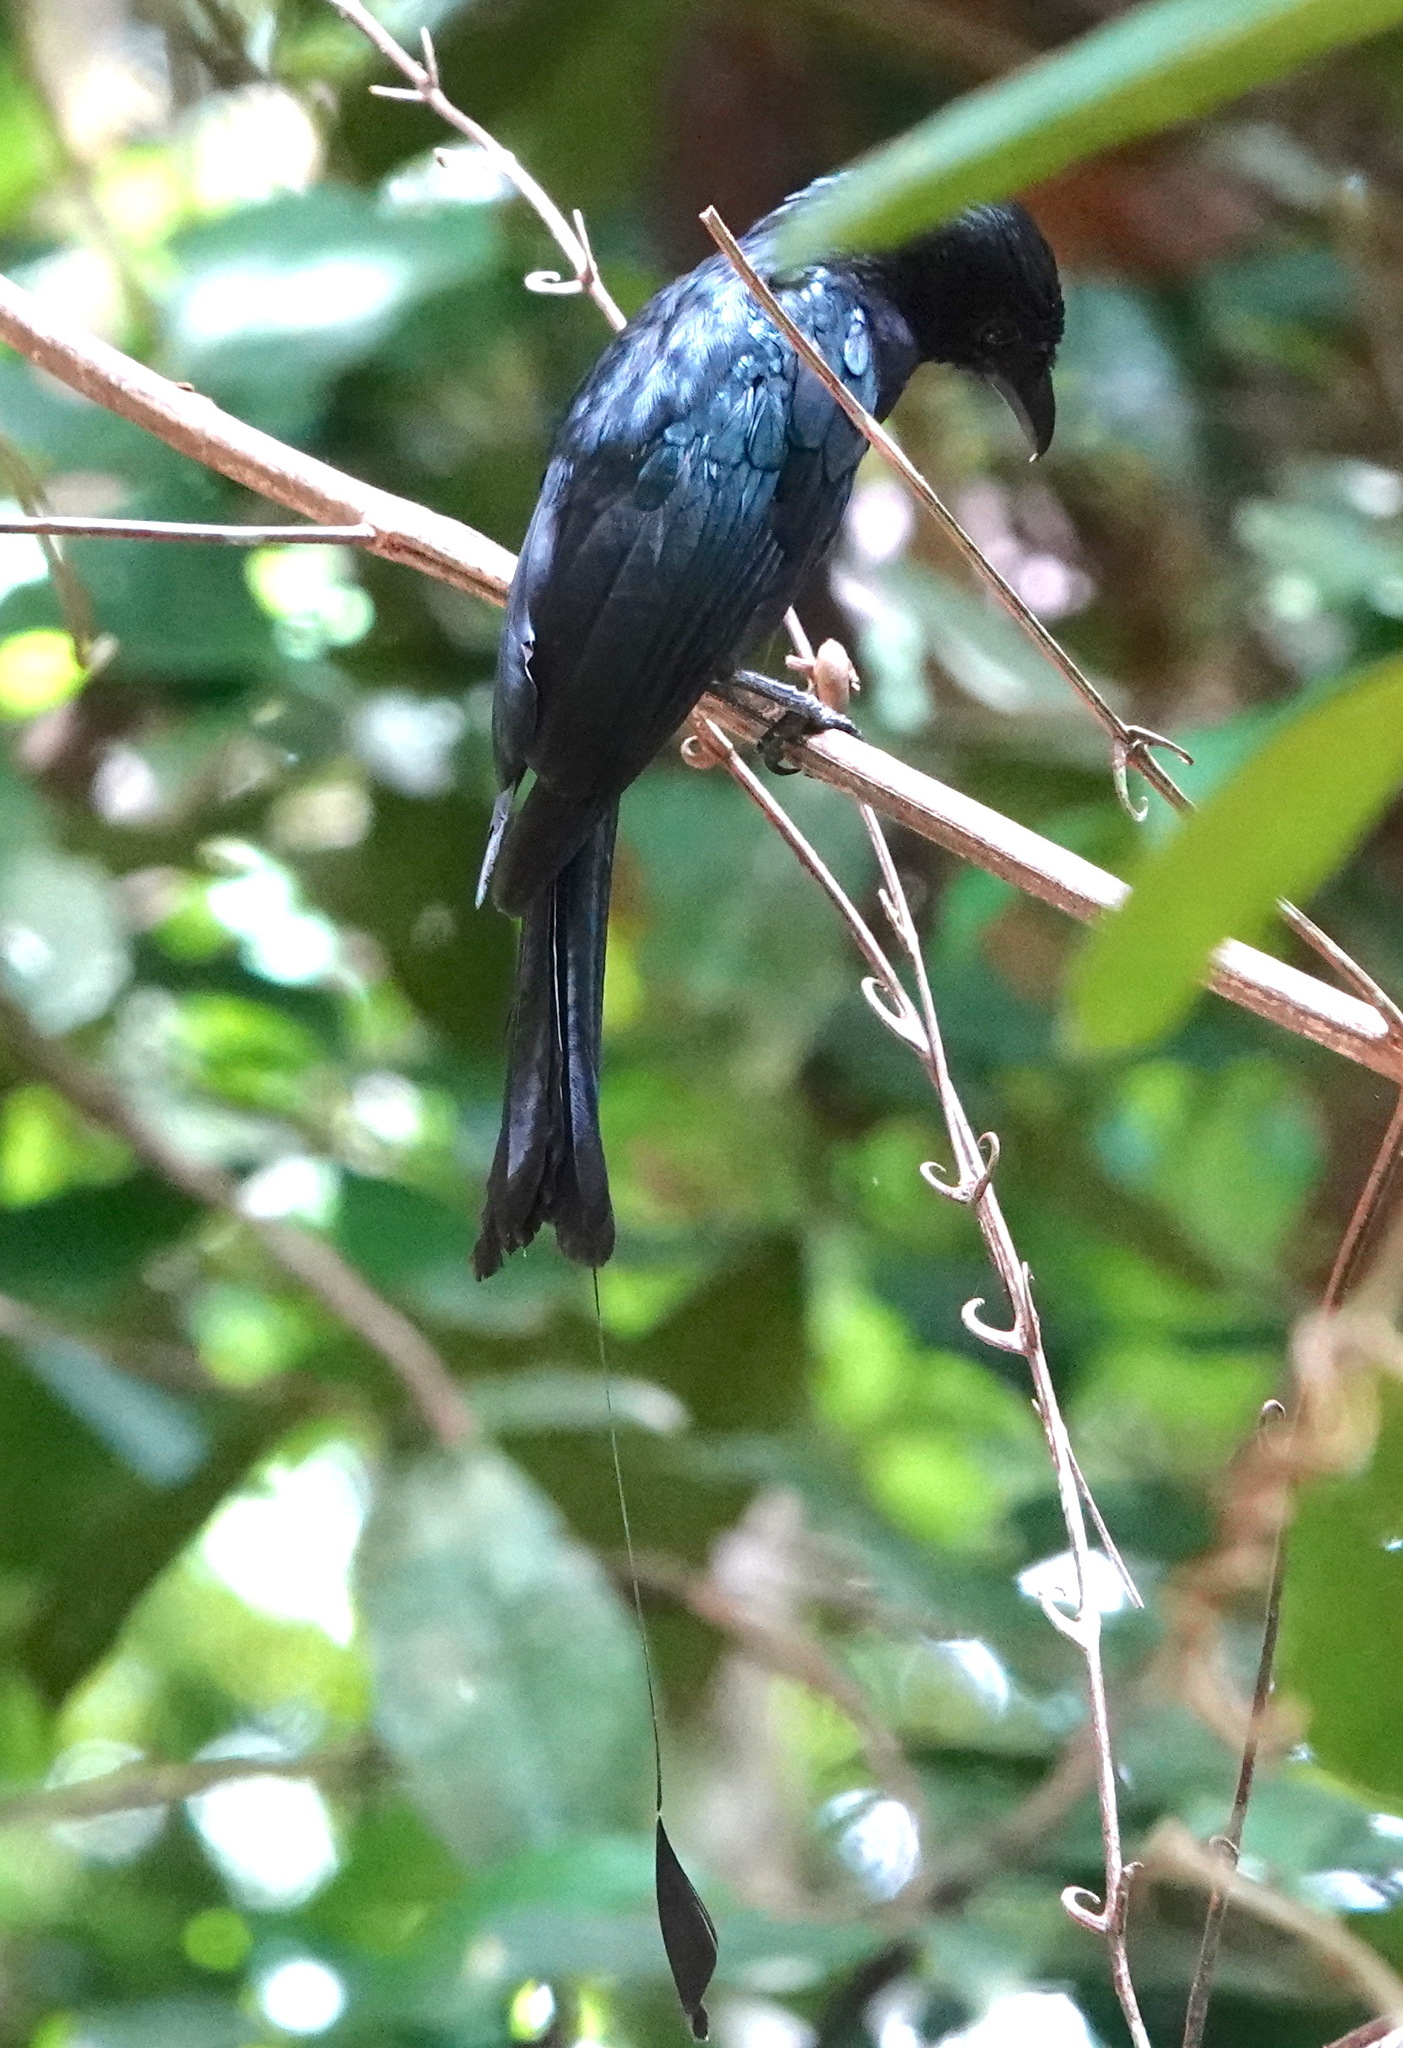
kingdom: Animalia
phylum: Chordata
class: Aves
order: Passeriformes
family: Dicruridae
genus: Dicrurus
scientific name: Dicrurus paradiseus
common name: Greater racket-tailed drongo
